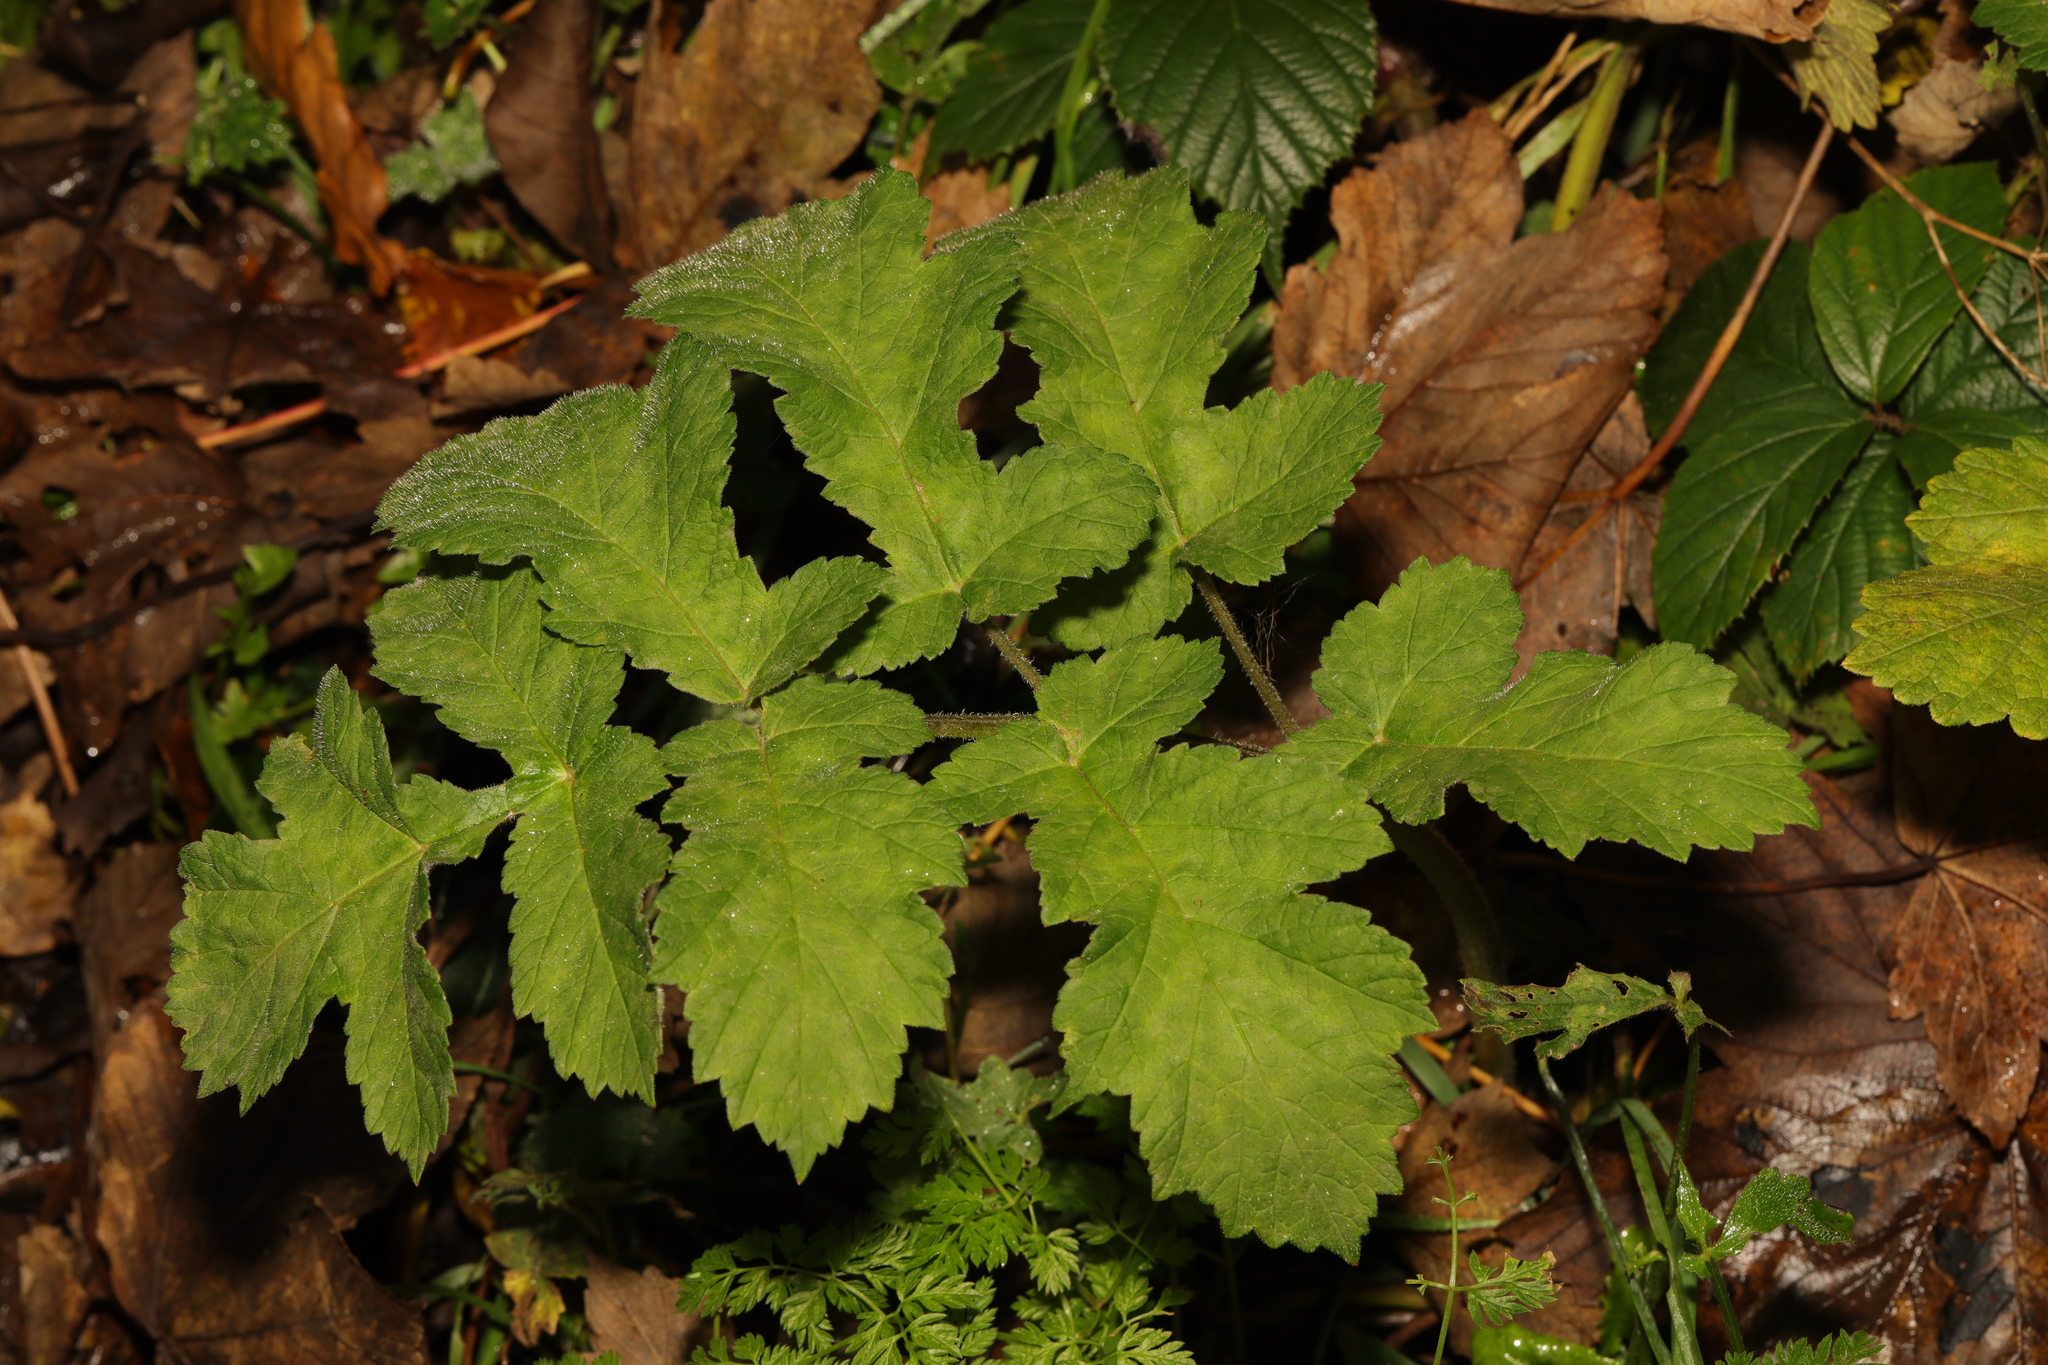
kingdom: Plantae
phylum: Tracheophyta
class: Magnoliopsida
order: Apiales
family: Apiaceae
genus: Heracleum
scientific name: Heracleum sphondylium
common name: Hogweed
